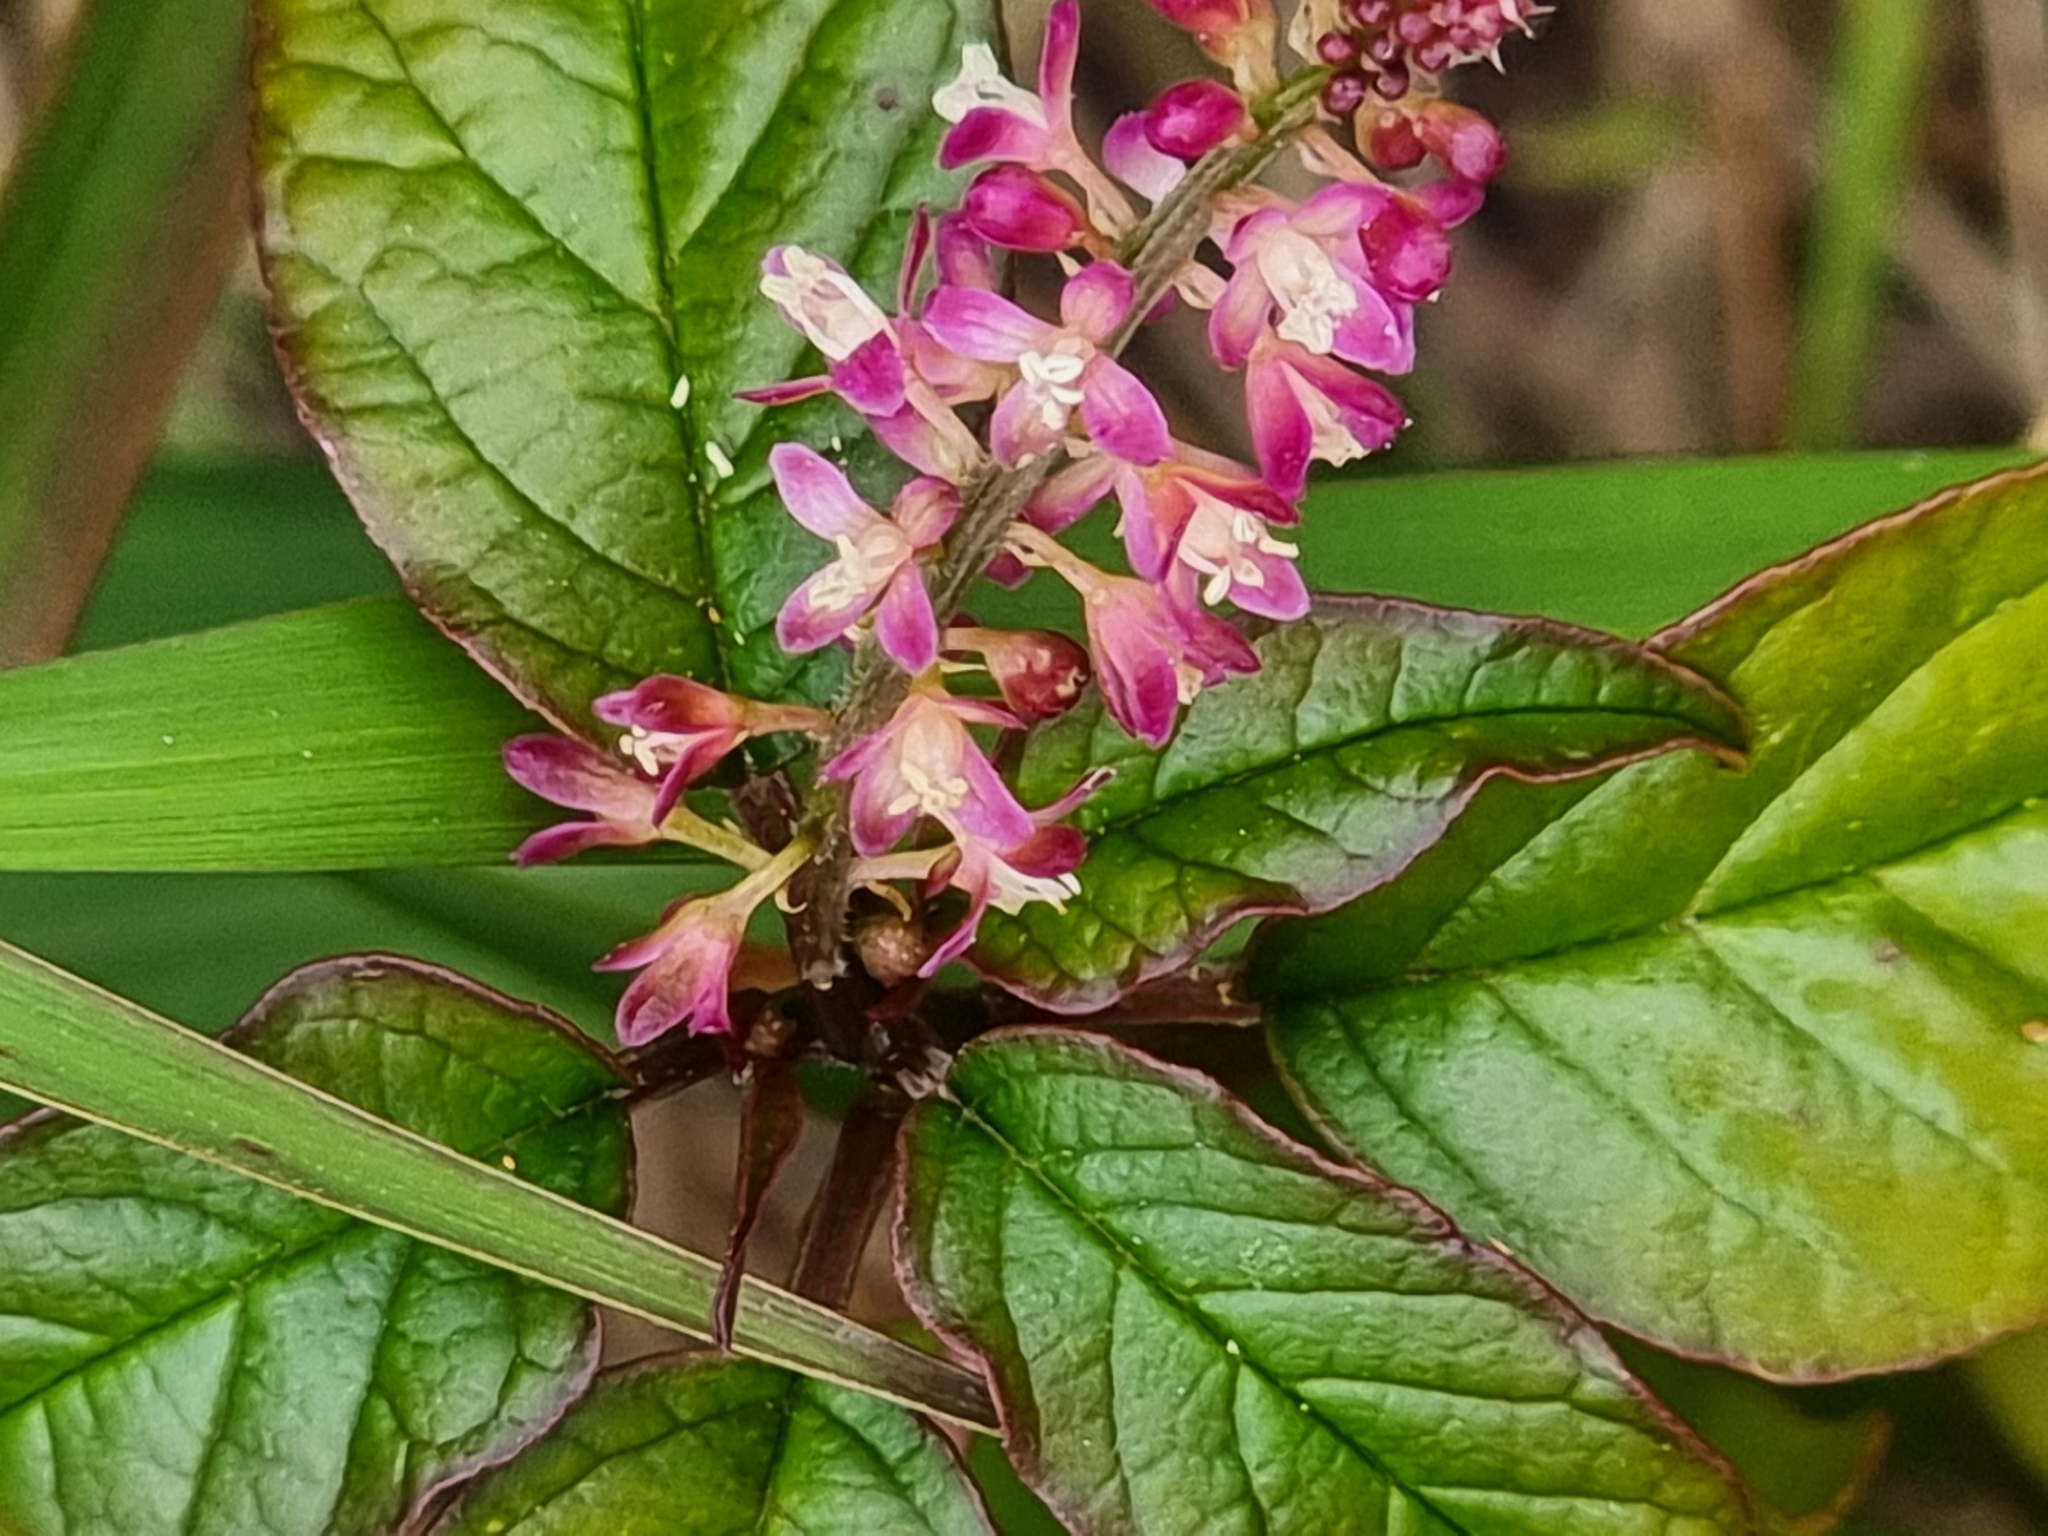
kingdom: Plantae
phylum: Tracheophyta
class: Magnoliopsida
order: Caryophyllales
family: Phytolaccaceae
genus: Rivina
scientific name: Rivina humilis
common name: Rougeplant
